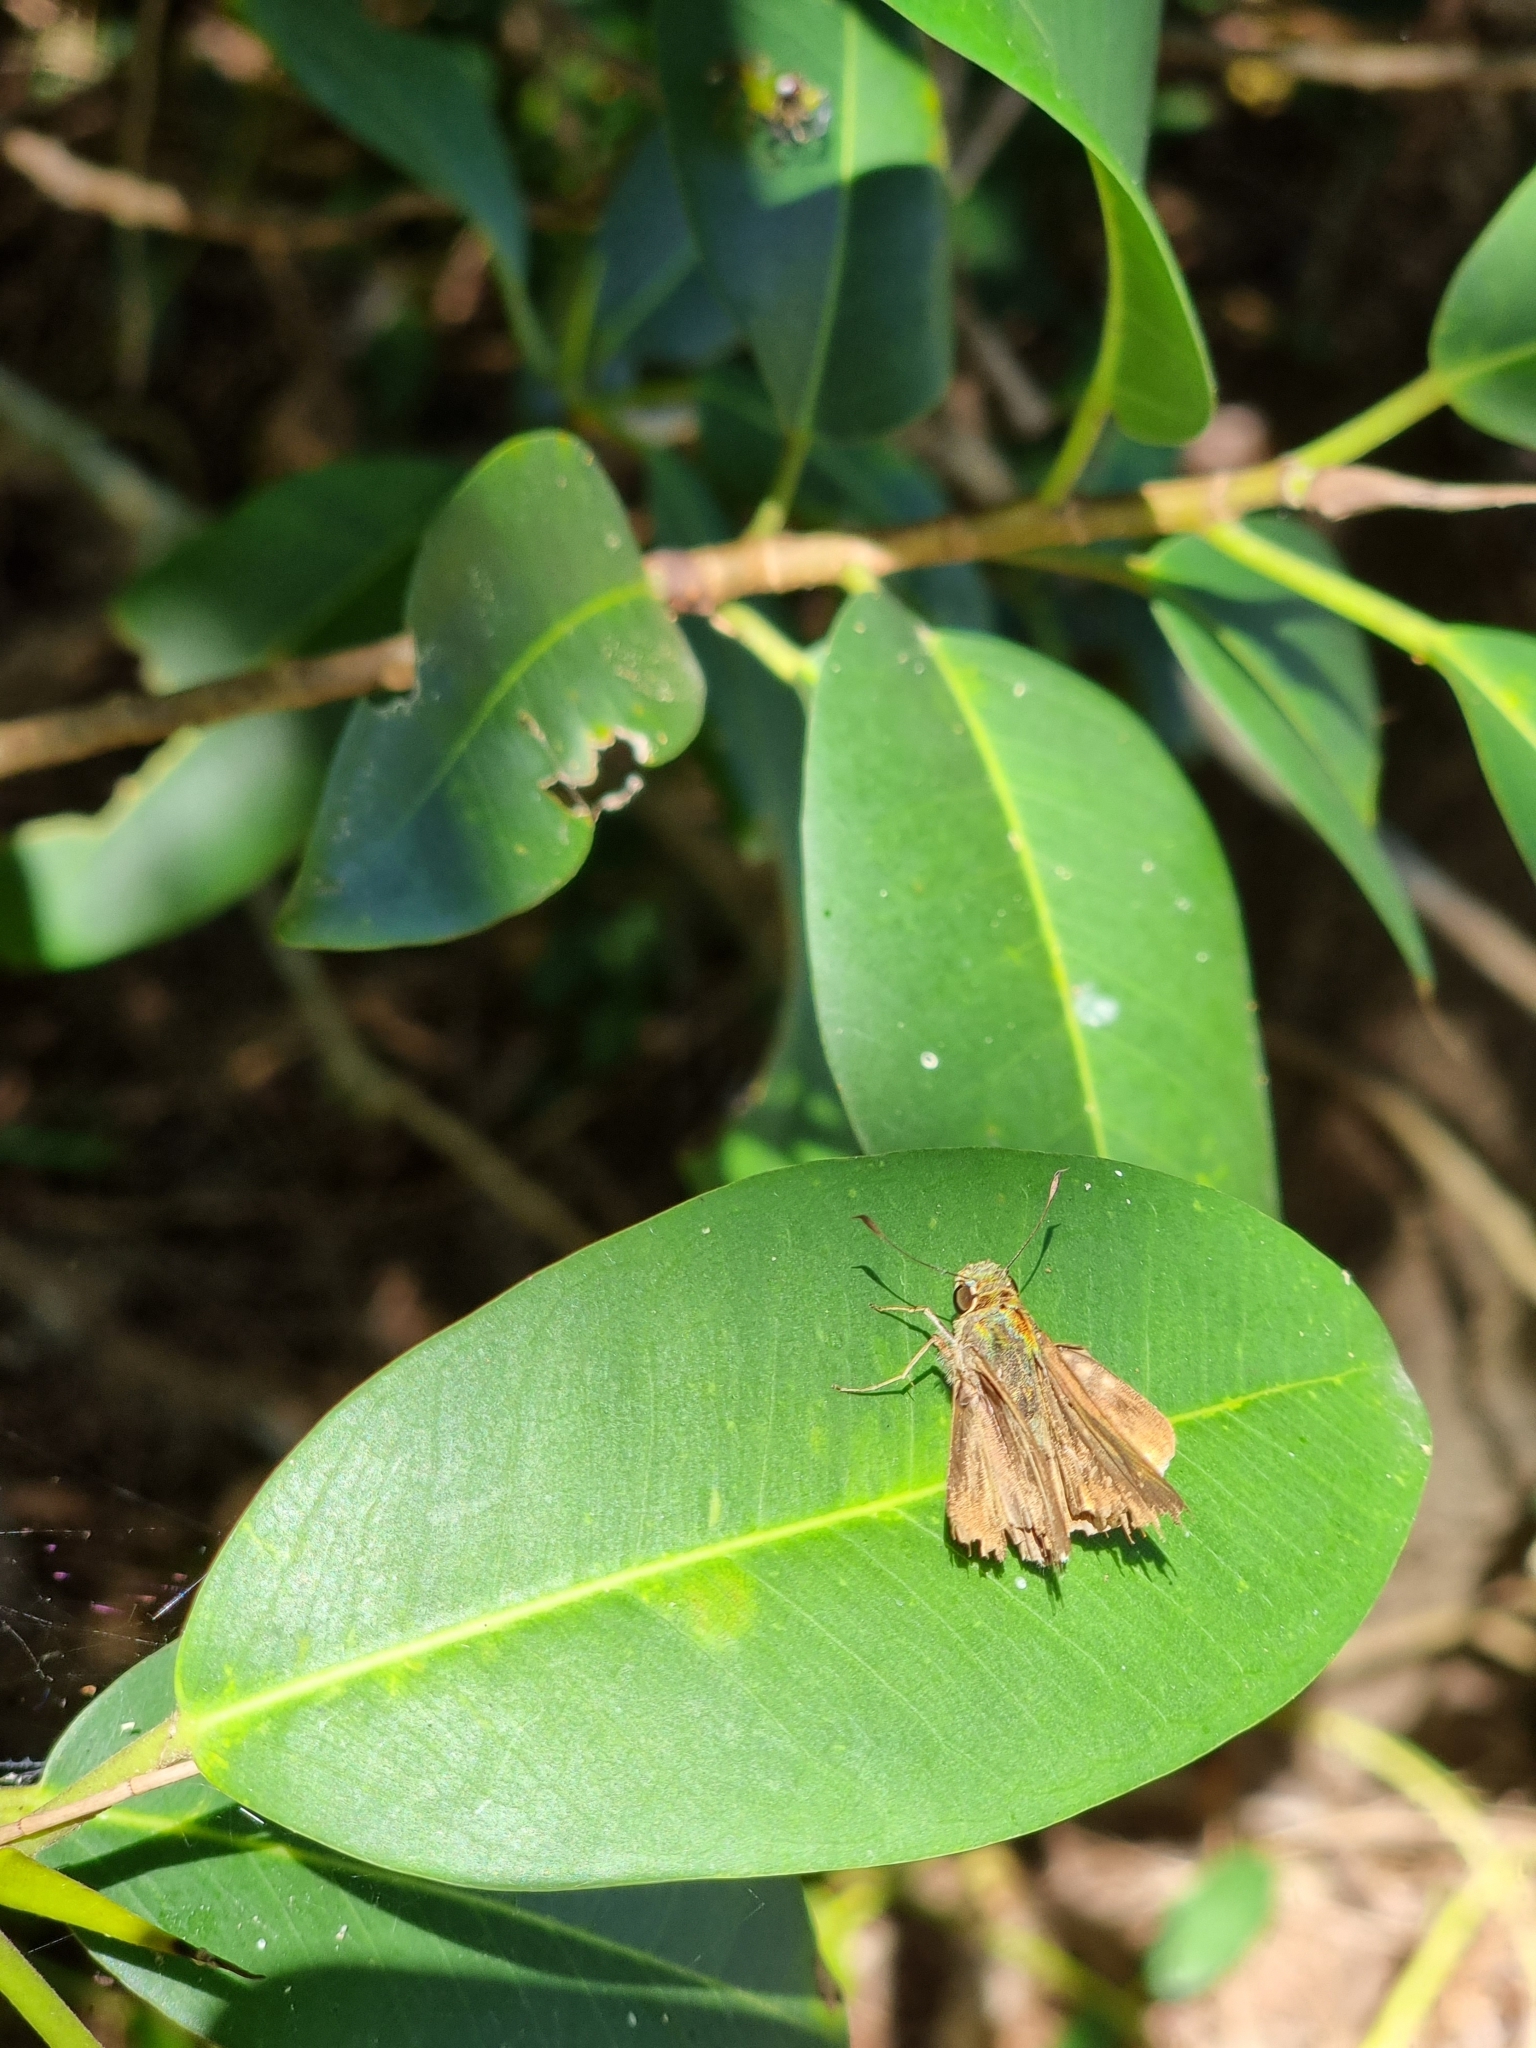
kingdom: Animalia
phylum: Arthropoda
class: Insecta
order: Lepidoptera
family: Hesperiidae
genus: Pelopidas
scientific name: Pelopidas lyelli
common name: Lyell's swift
